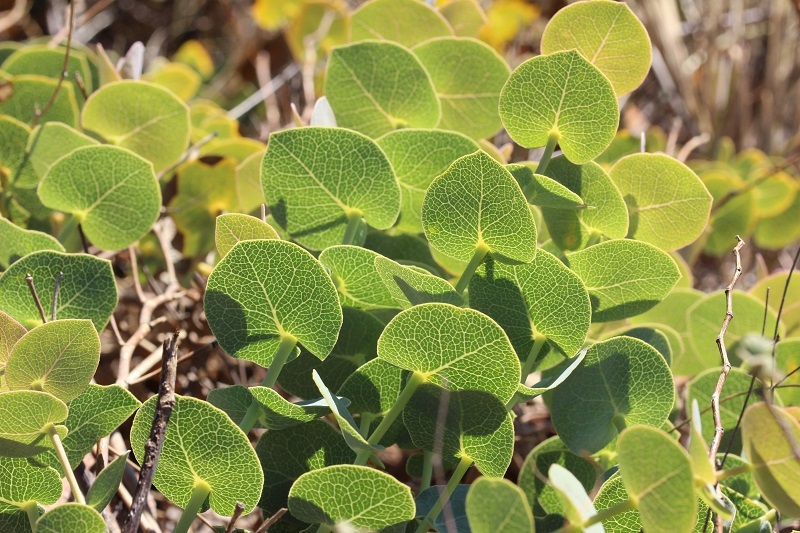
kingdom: Plantae
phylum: Tracheophyta
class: Magnoliopsida
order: Fabales
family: Fabaceae
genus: Rafnia
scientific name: Rafnia acuminata
